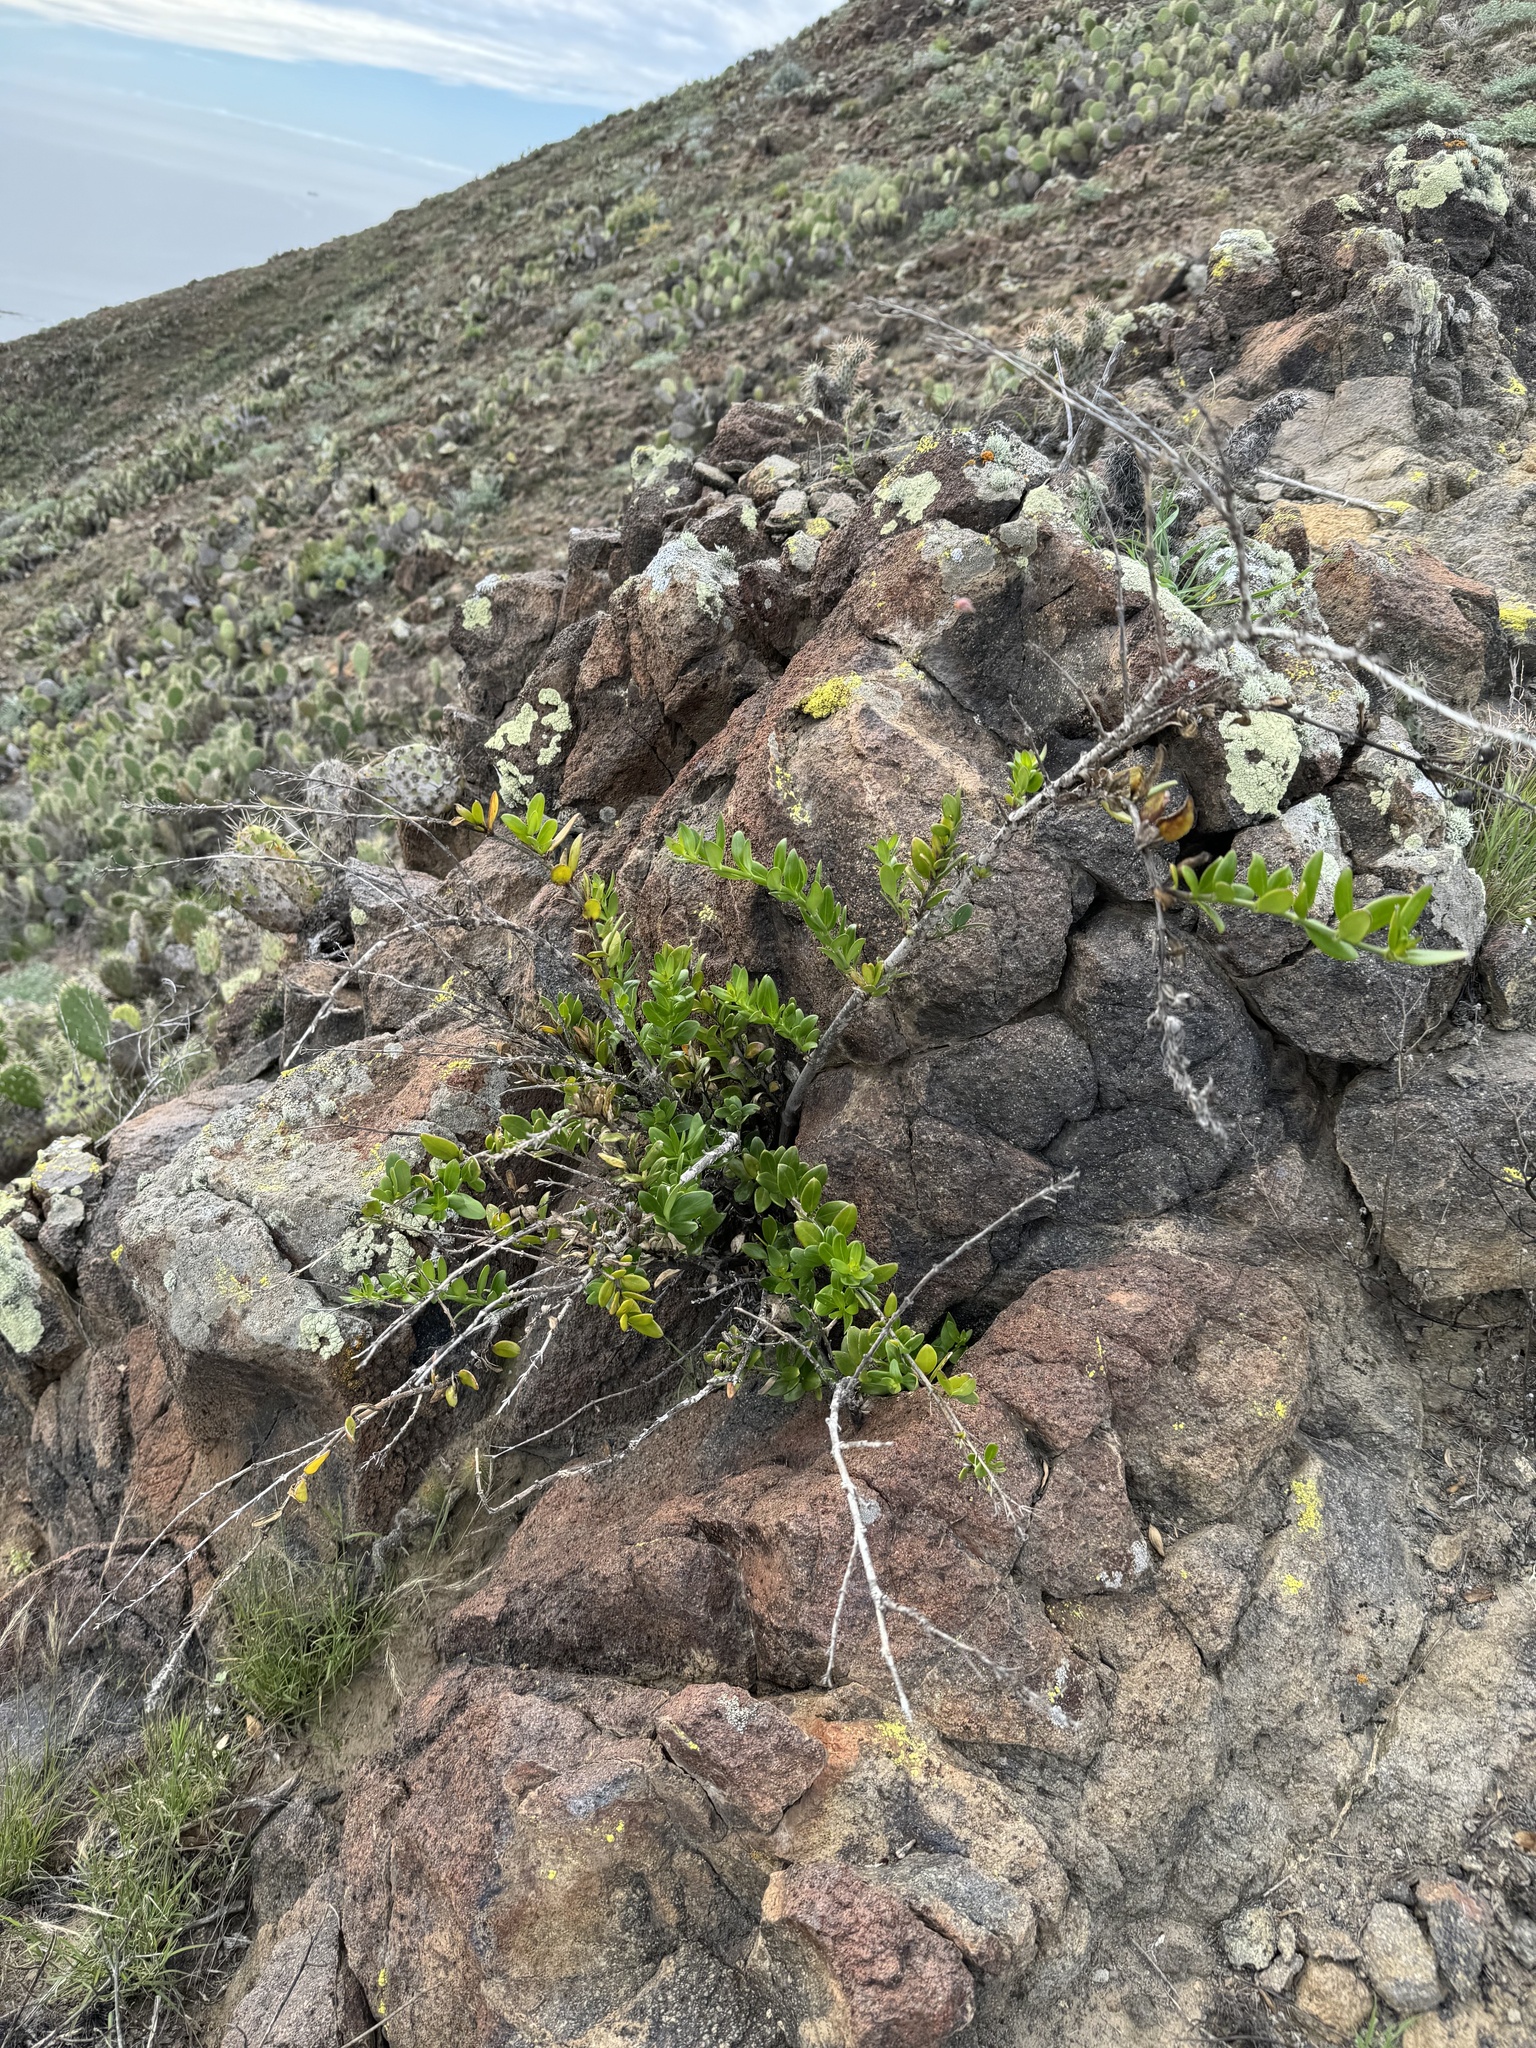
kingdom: Plantae
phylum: Tracheophyta
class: Magnoliopsida
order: Lamiales
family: Plantaginaceae
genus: Gambelia
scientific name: Gambelia speciosa
